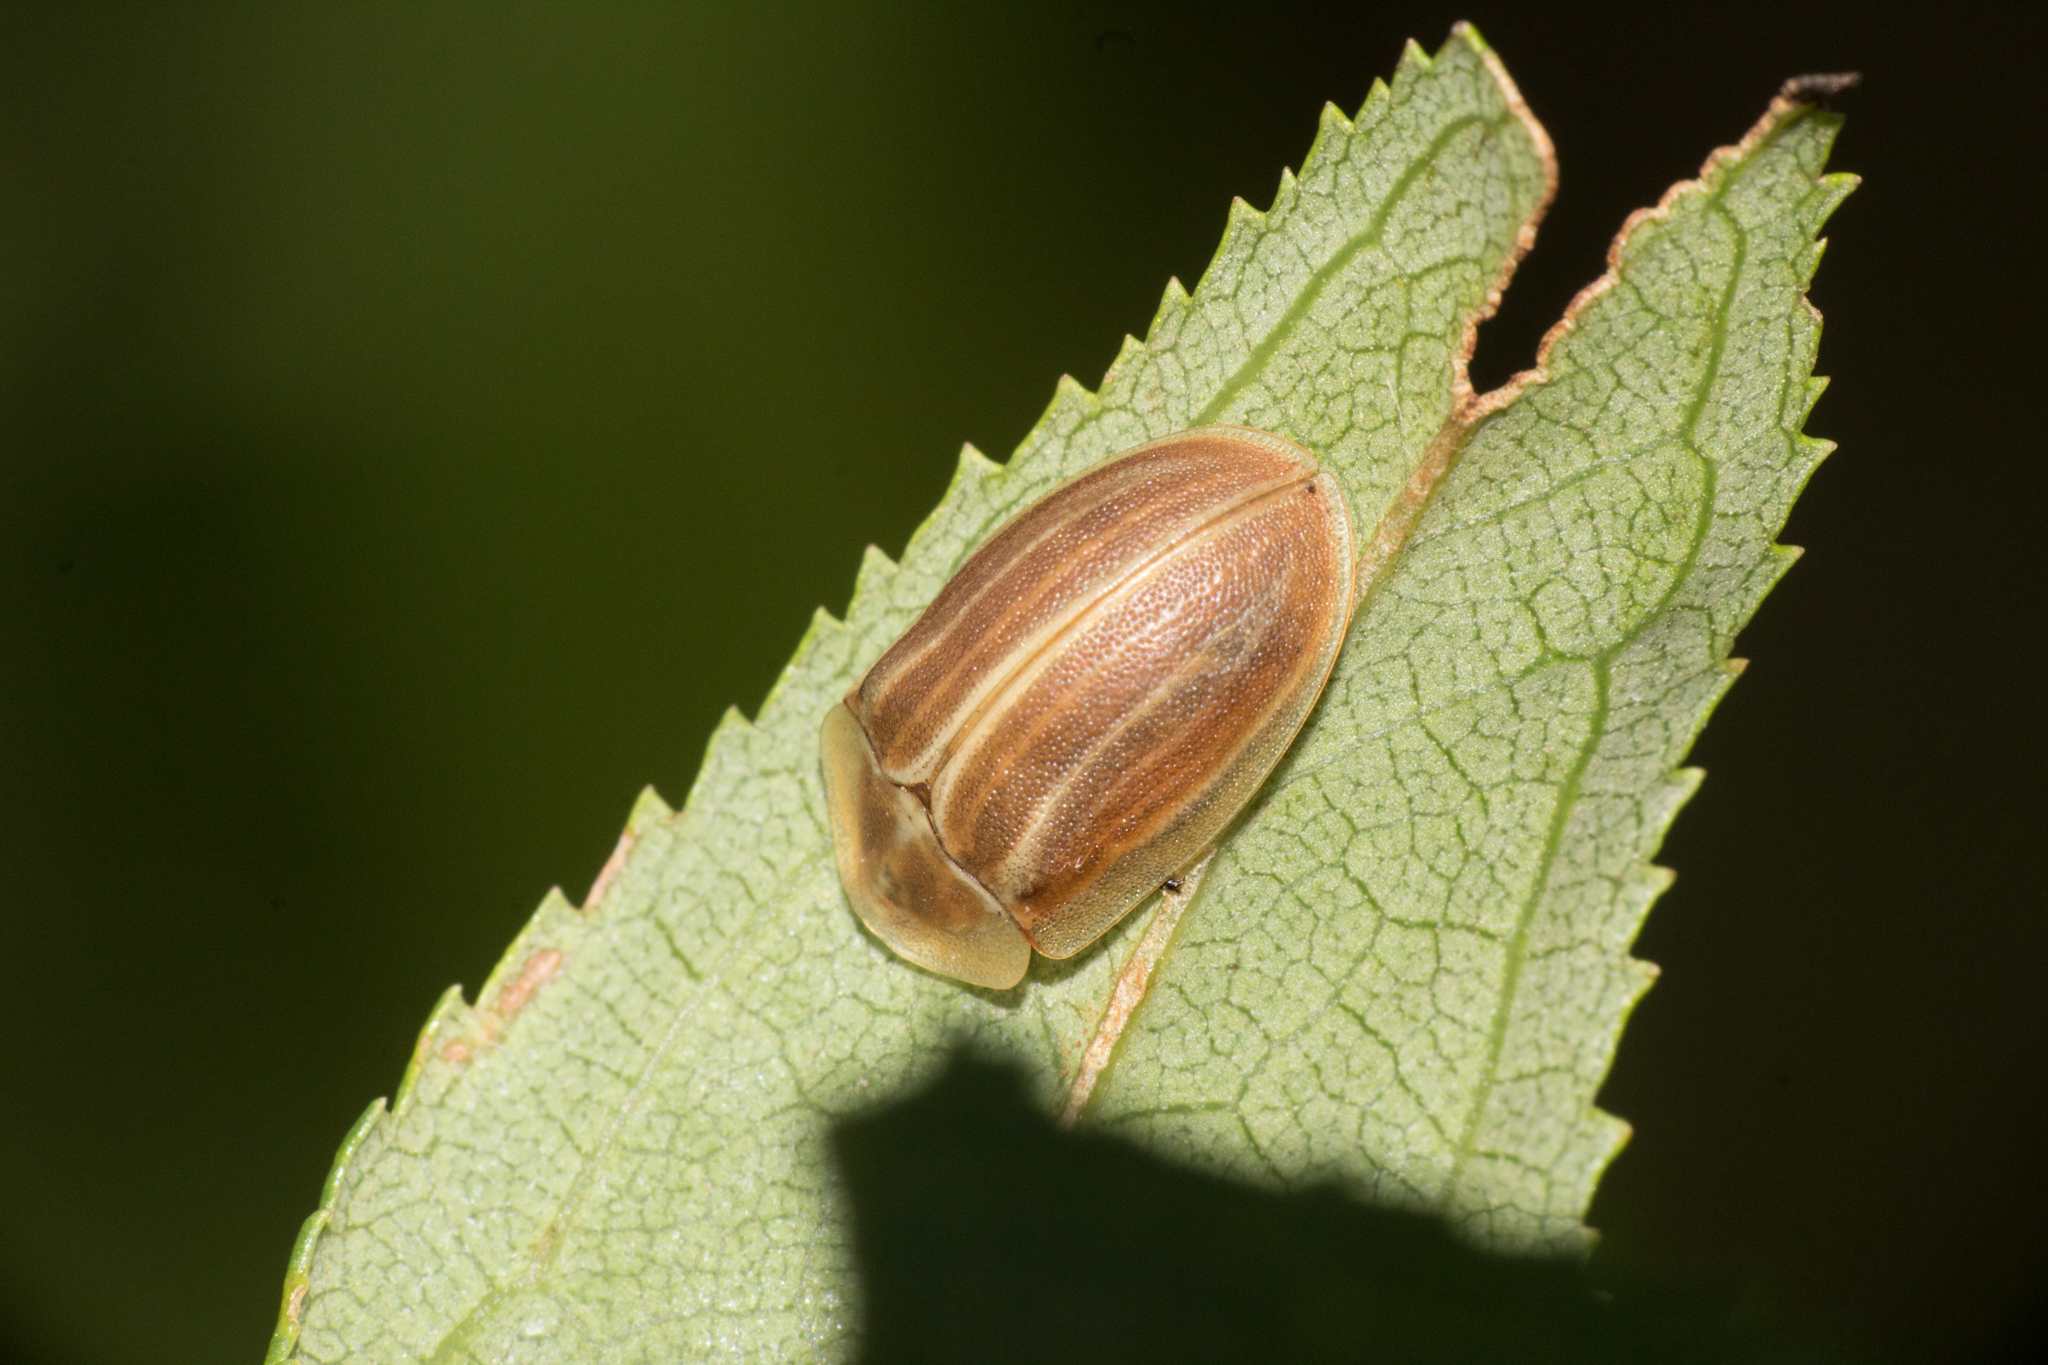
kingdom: Animalia
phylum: Arthropoda
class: Insecta
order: Coleoptera
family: Chrysomelidae
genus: Anacassis
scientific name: Anacassis fuscata
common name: Seepwillow flea beetle
